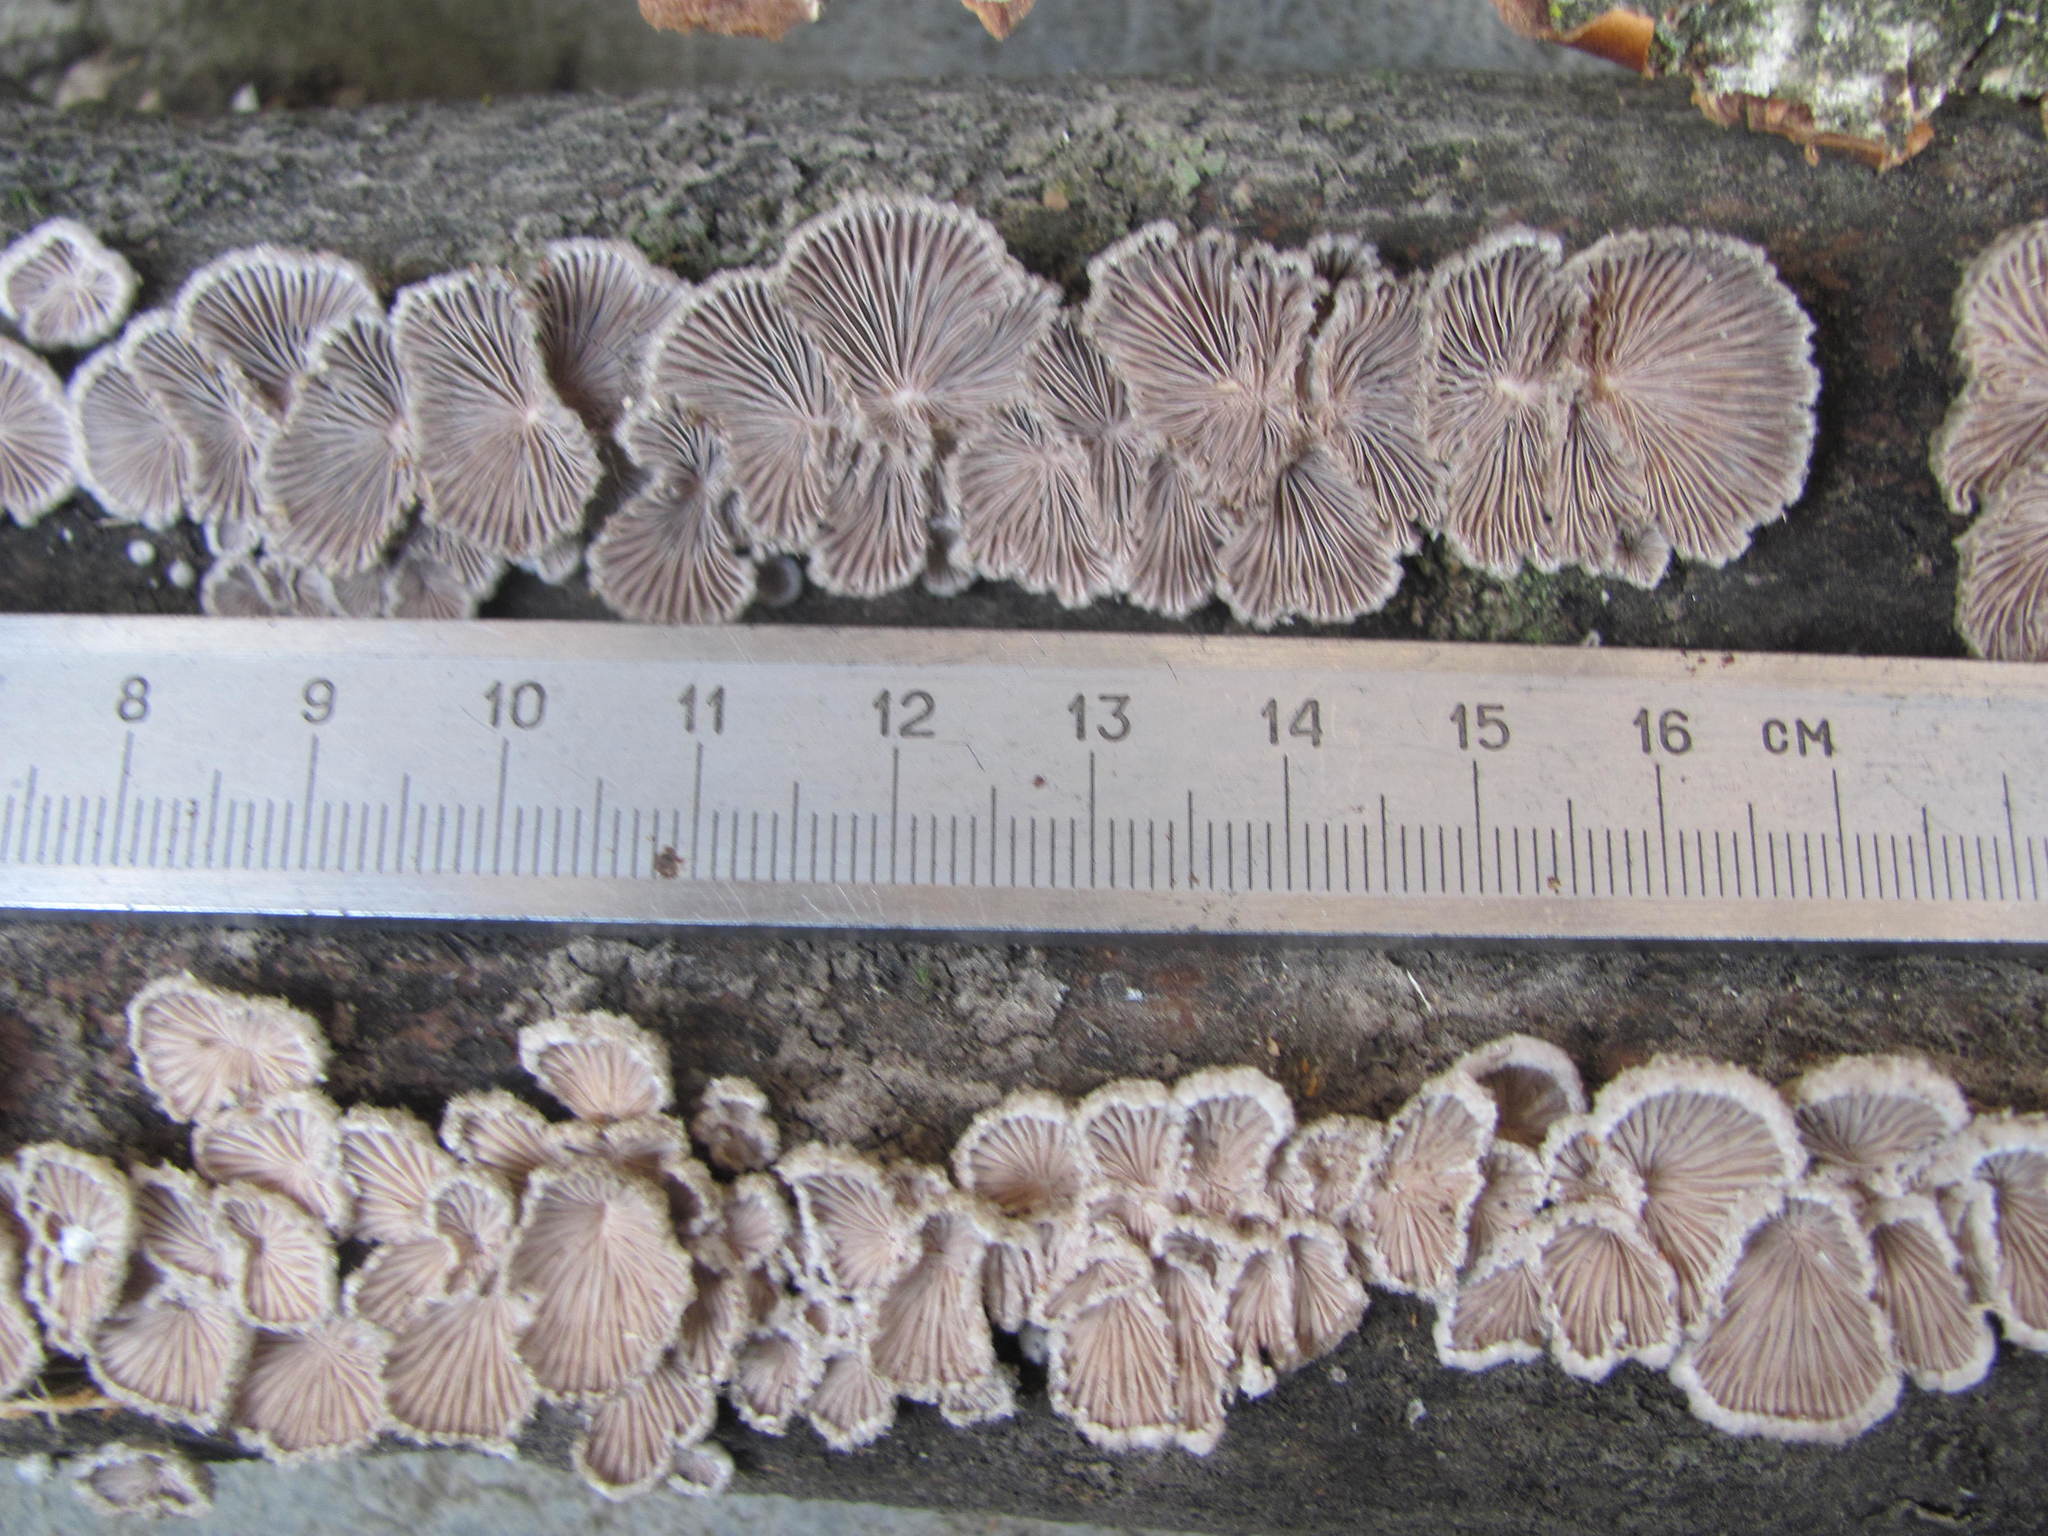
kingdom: Fungi
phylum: Basidiomycota
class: Agaricomycetes
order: Agaricales
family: Schizophyllaceae
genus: Schizophyllum
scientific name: Schizophyllum commune
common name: Common porecrust
